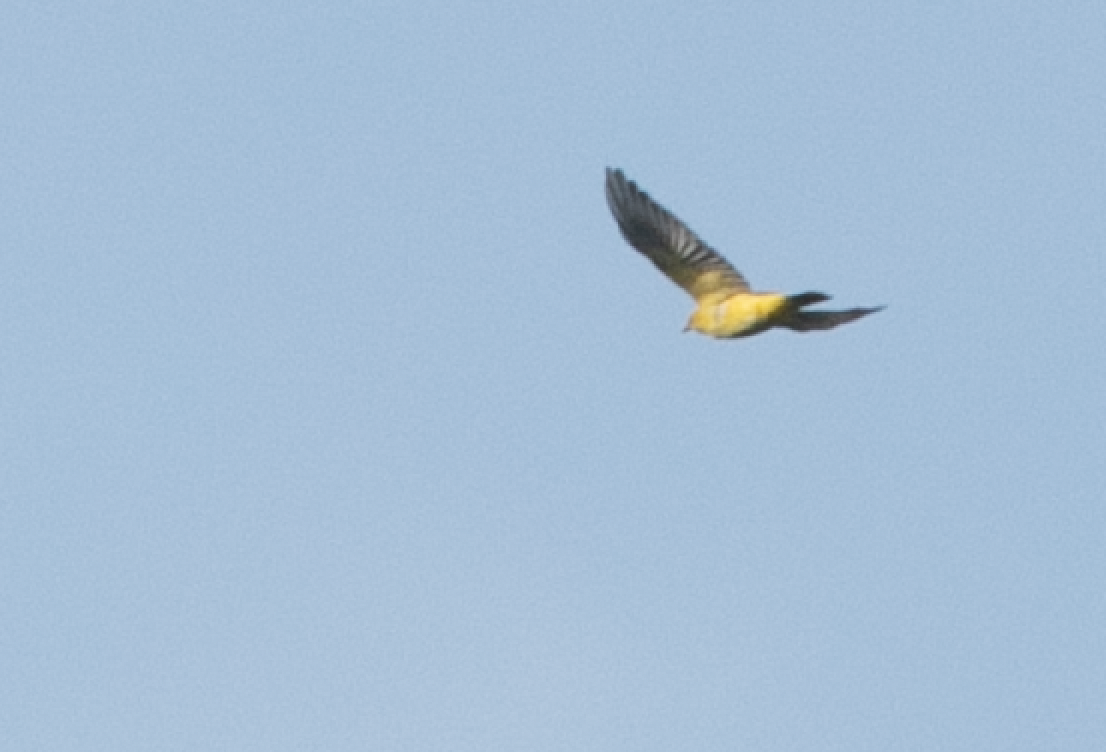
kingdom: Animalia
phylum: Chordata
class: Aves
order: Passeriformes
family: Oriolidae
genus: Oriolus
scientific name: Oriolus oriolus
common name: Eurasian golden oriole
